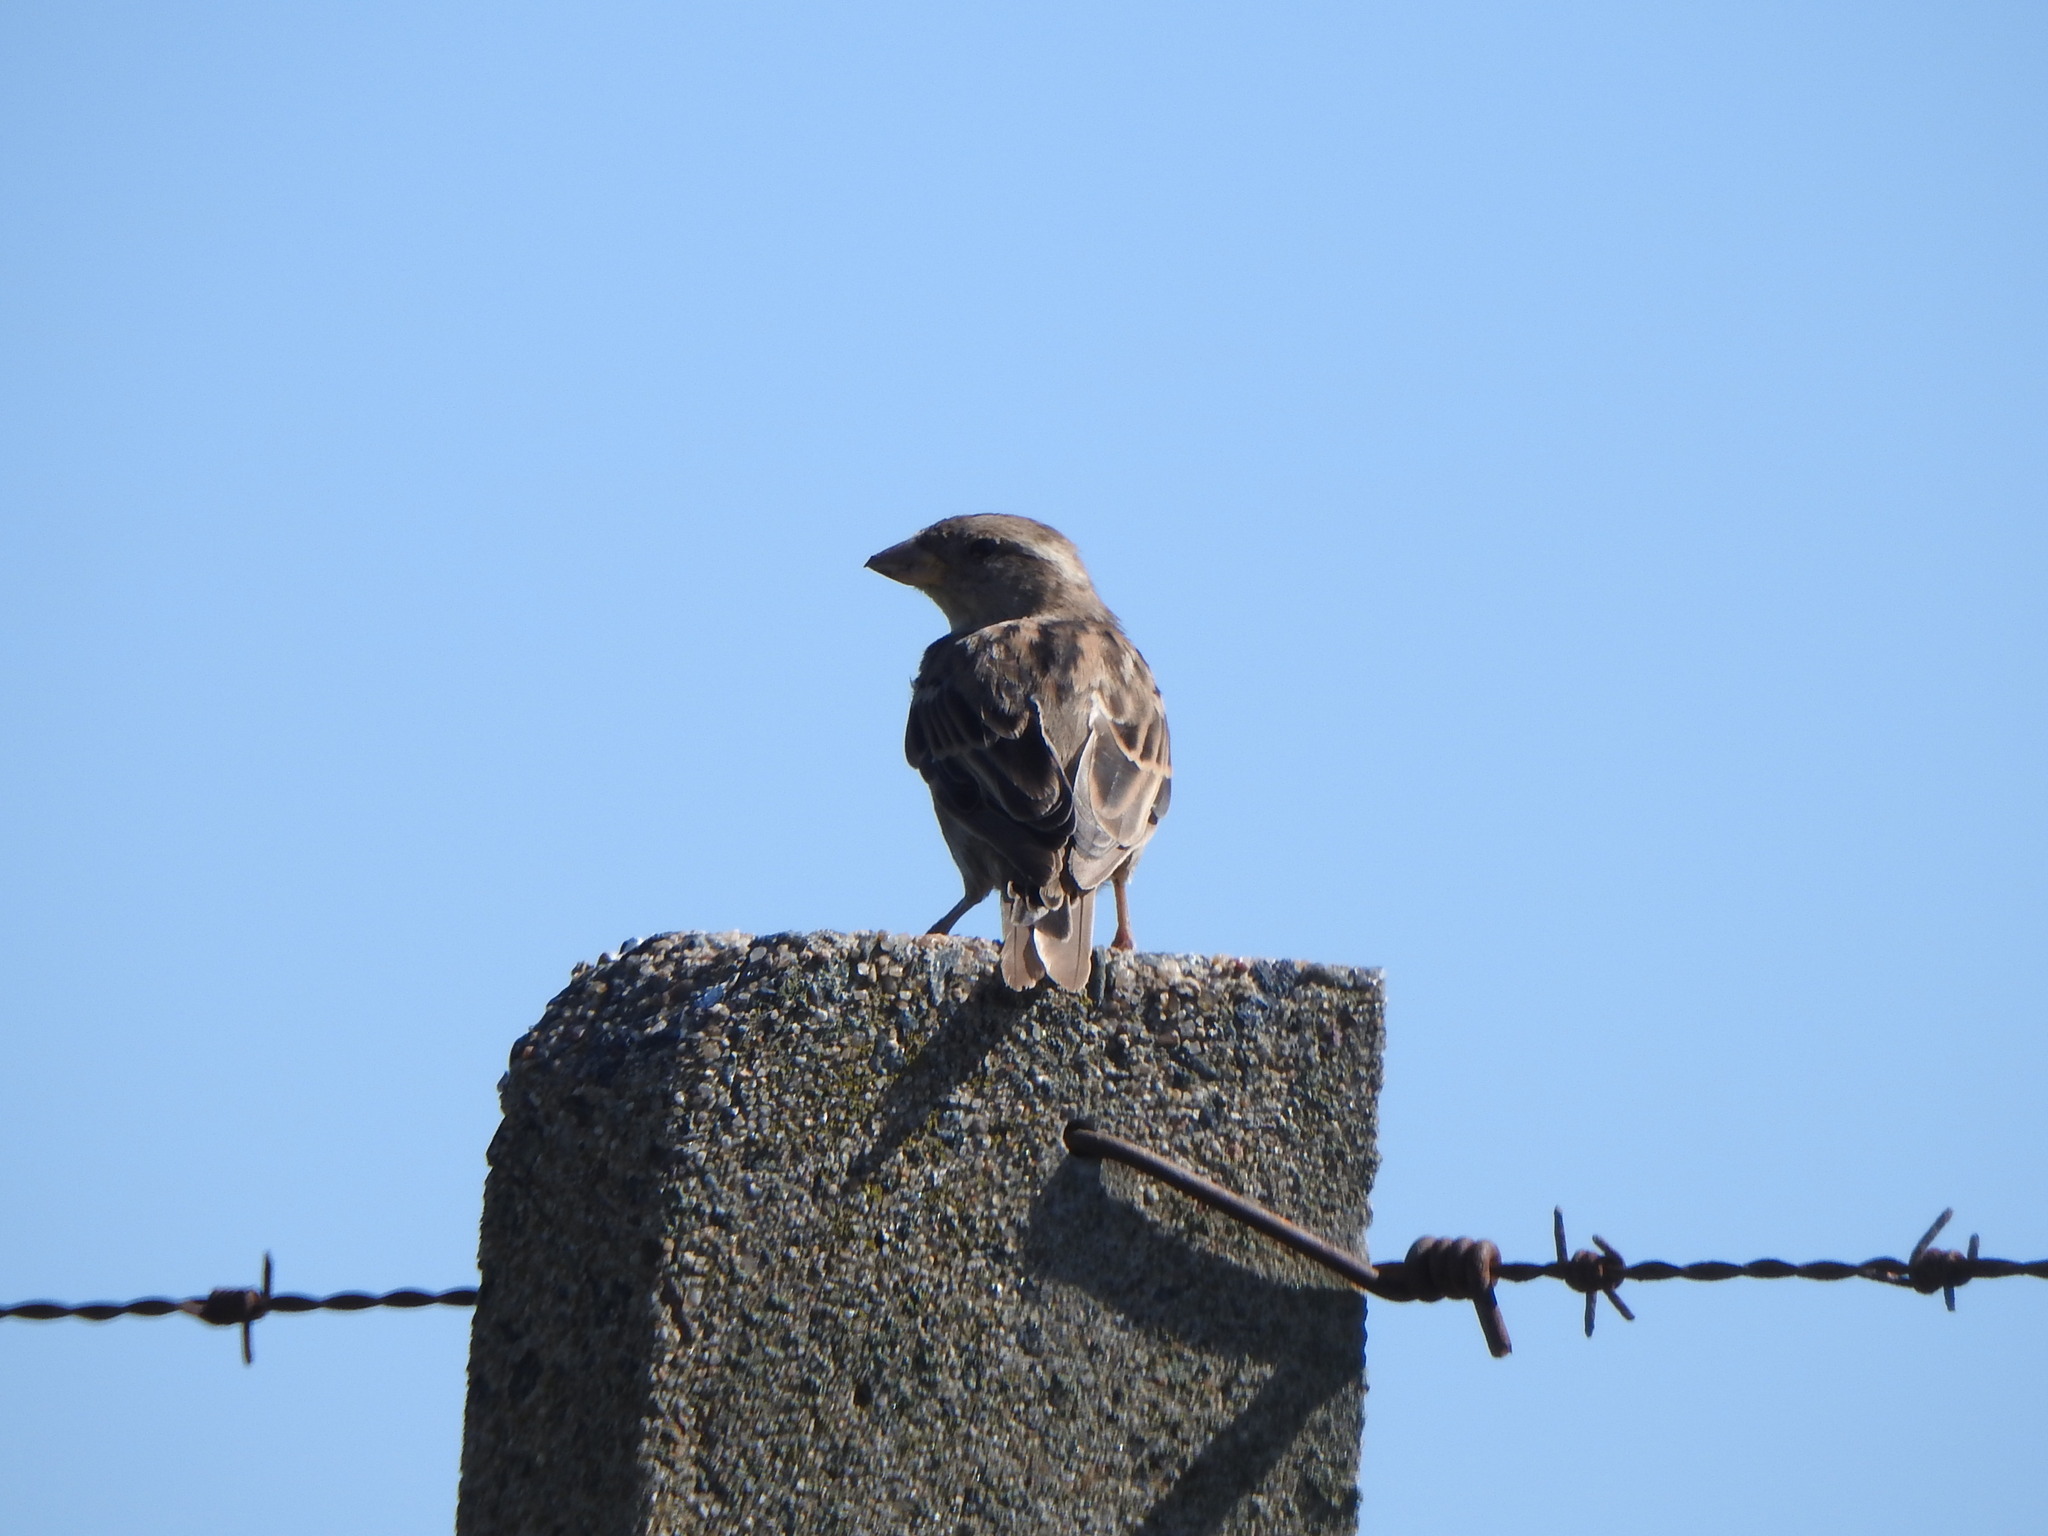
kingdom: Animalia
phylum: Chordata
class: Aves
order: Passeriformes
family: Passeridae
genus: Passer
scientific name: Passer domesticus
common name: House sparrow
